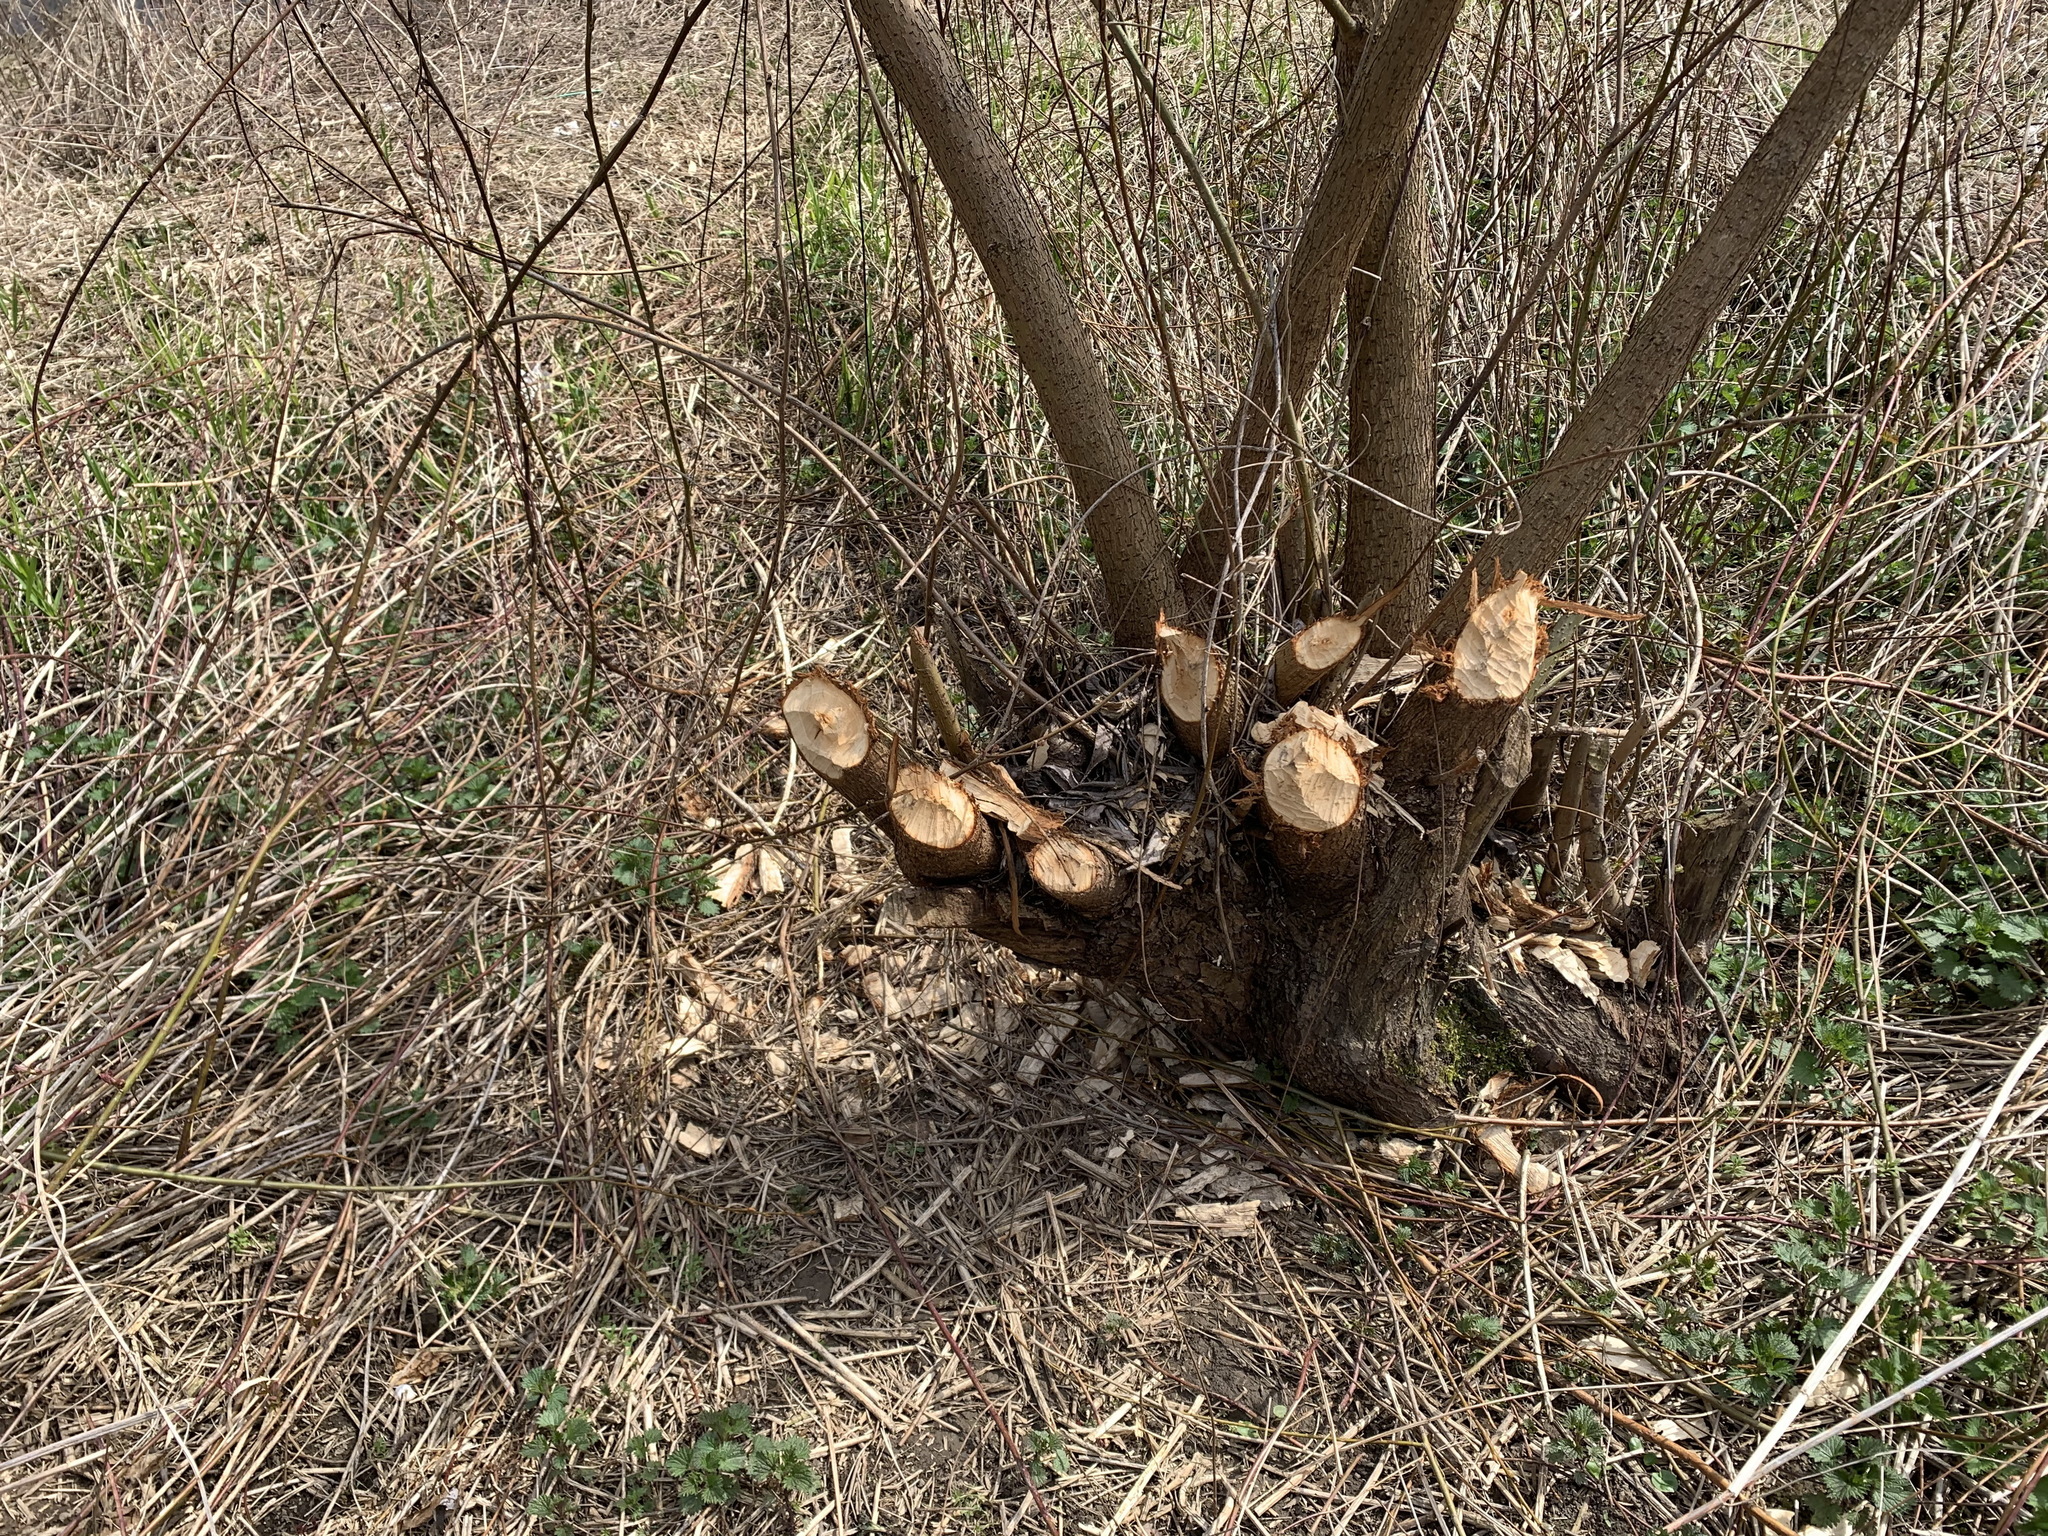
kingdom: Animalia
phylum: Chordata
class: Mammalia
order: Rodentia
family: Castoridae
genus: Castor
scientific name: Castor fiber
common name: Eurasian beaver
